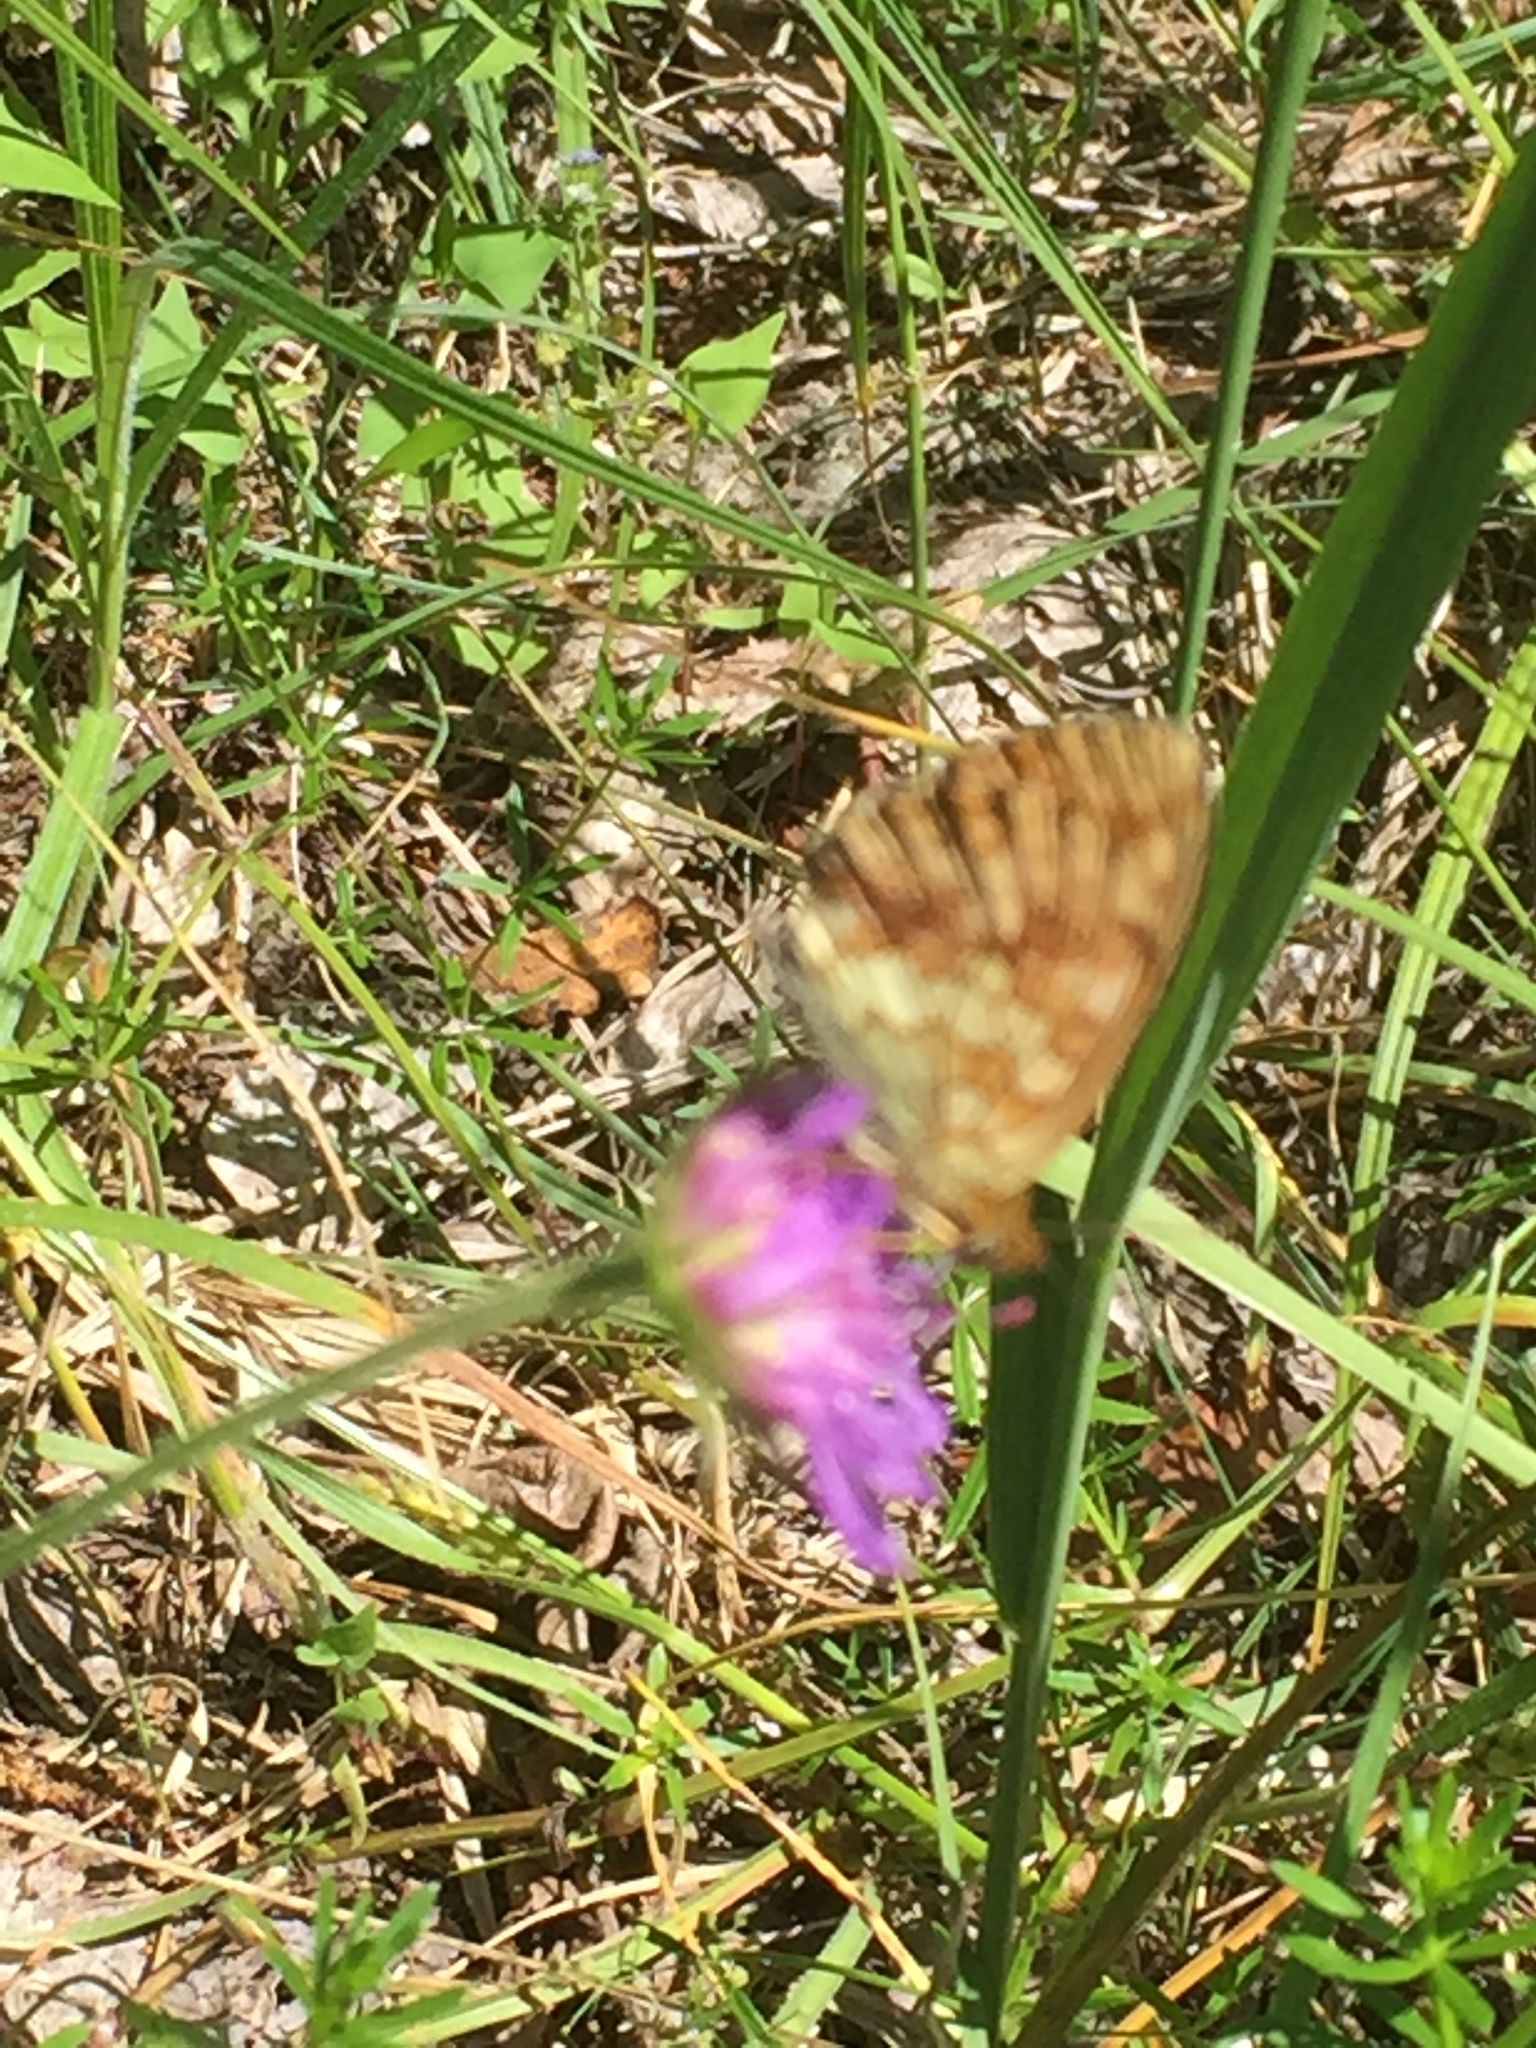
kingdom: Animalia
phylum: Arthropoda
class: Insecta
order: Lepidoptera
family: Nymphalidae
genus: Brenthis
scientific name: Brenthis ino
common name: Lesser marbled fritillary
